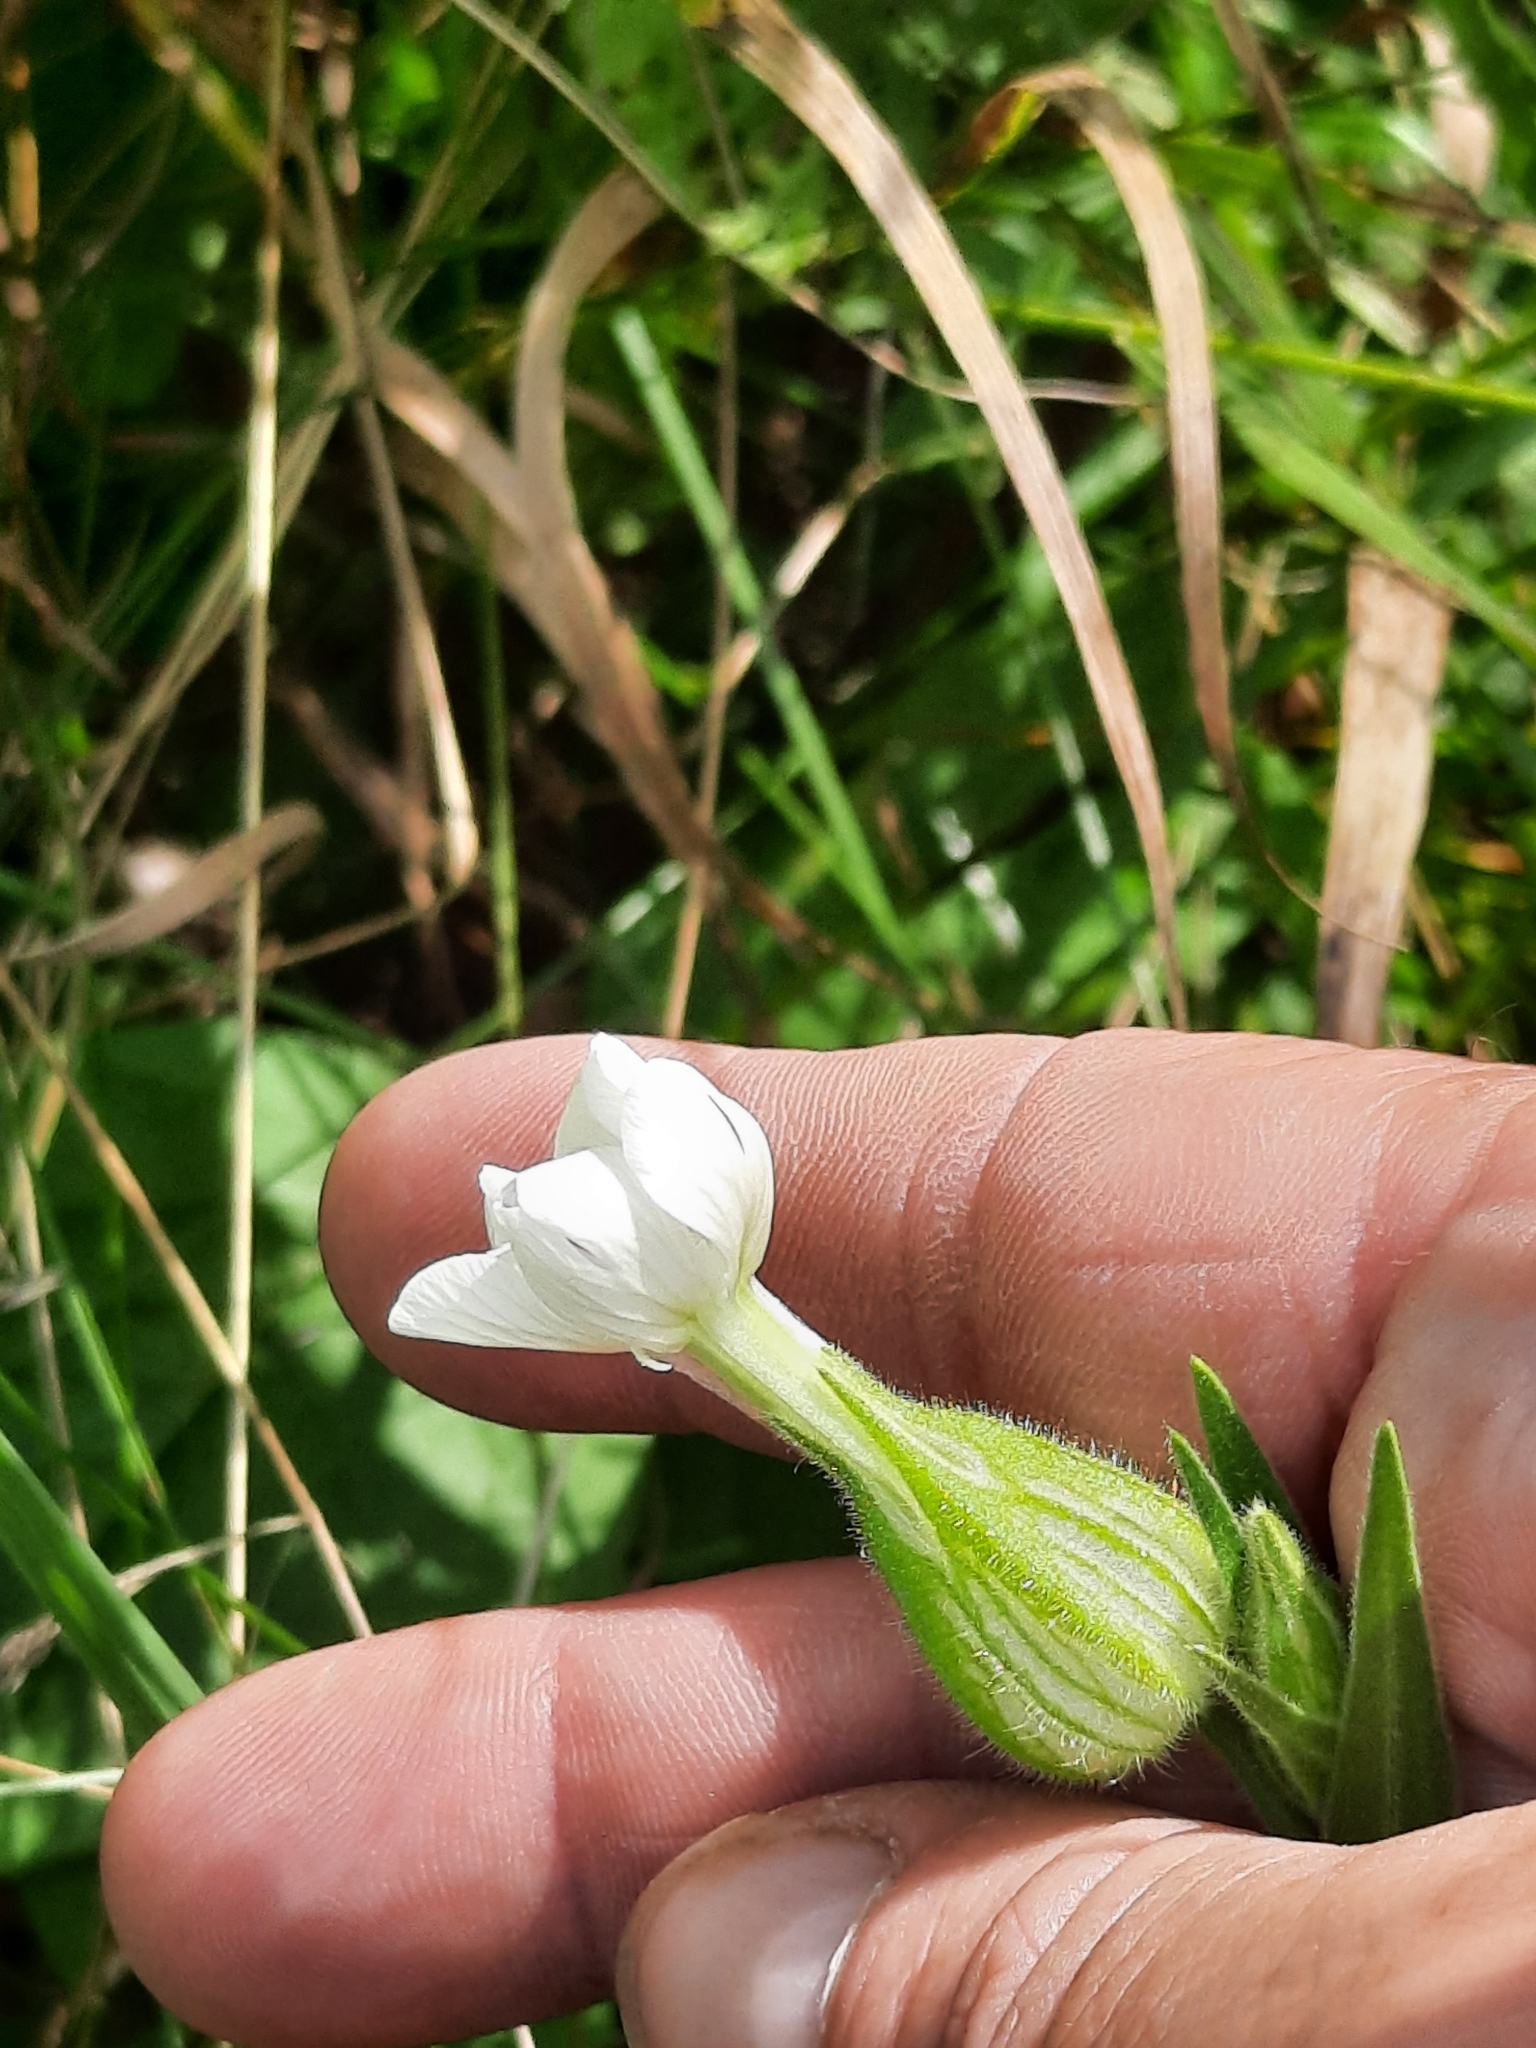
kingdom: Plantae
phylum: Tracheophyta
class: Magnoliopsida
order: Caryophyllales
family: Caryophyllaceae
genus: Silene
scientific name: Silene latifolia
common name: White campion
